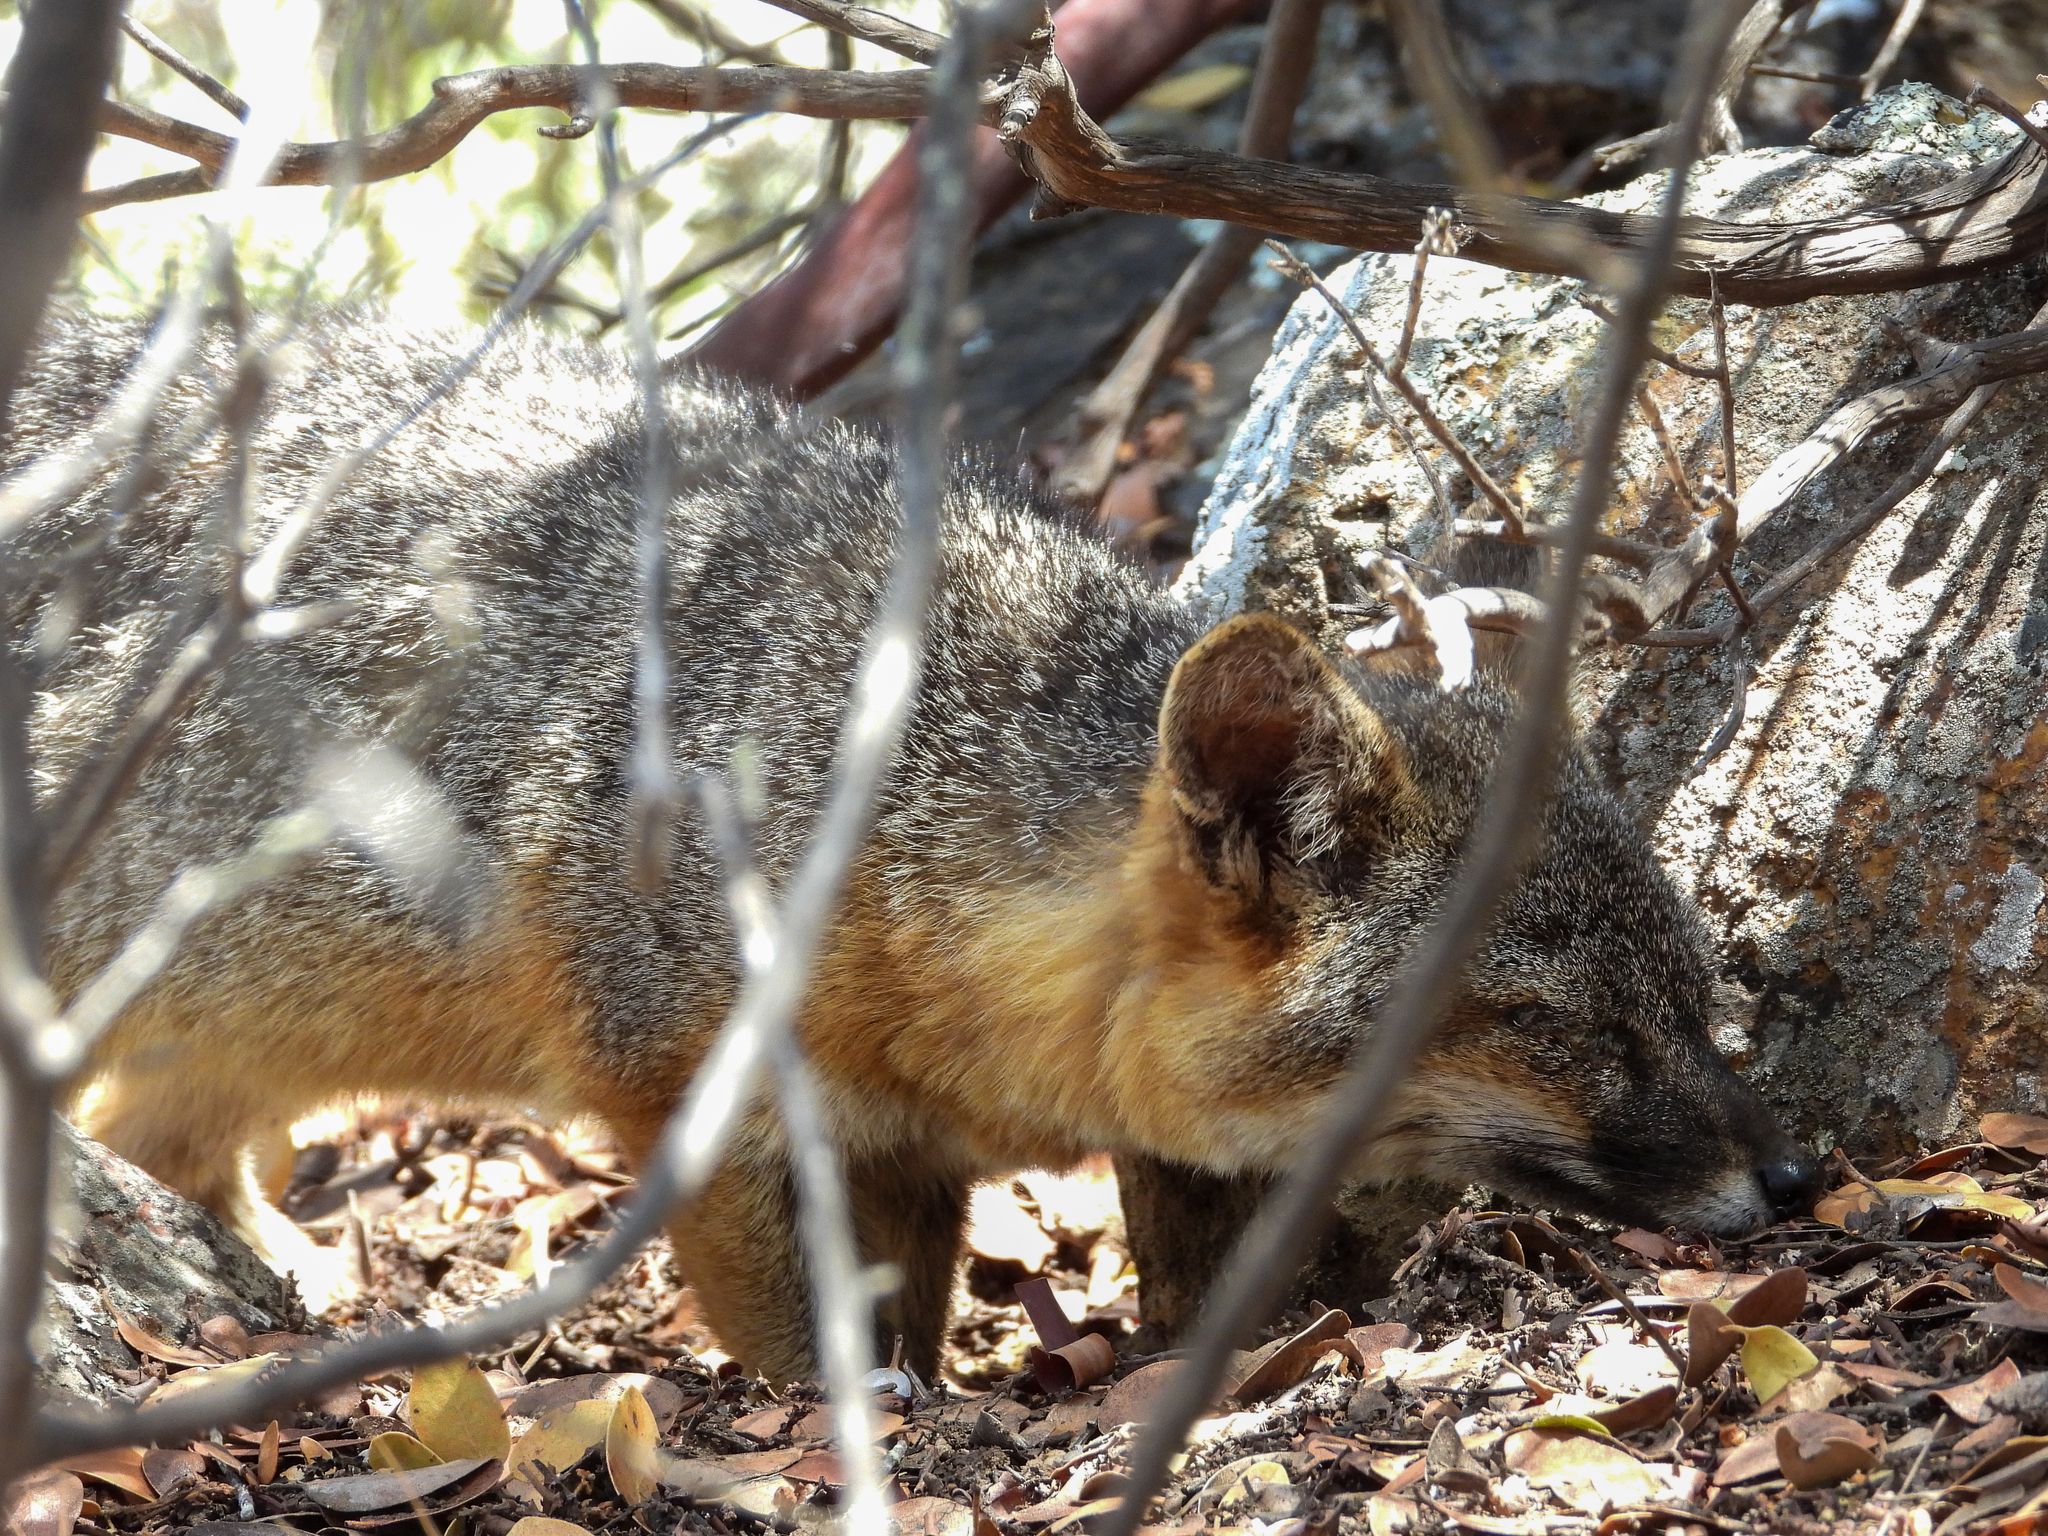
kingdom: Animalia
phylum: Chordata
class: Mammalia
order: Carnivora
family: Canidae
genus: Urocyon
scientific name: Urocyon littoralis
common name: Island gray fox
